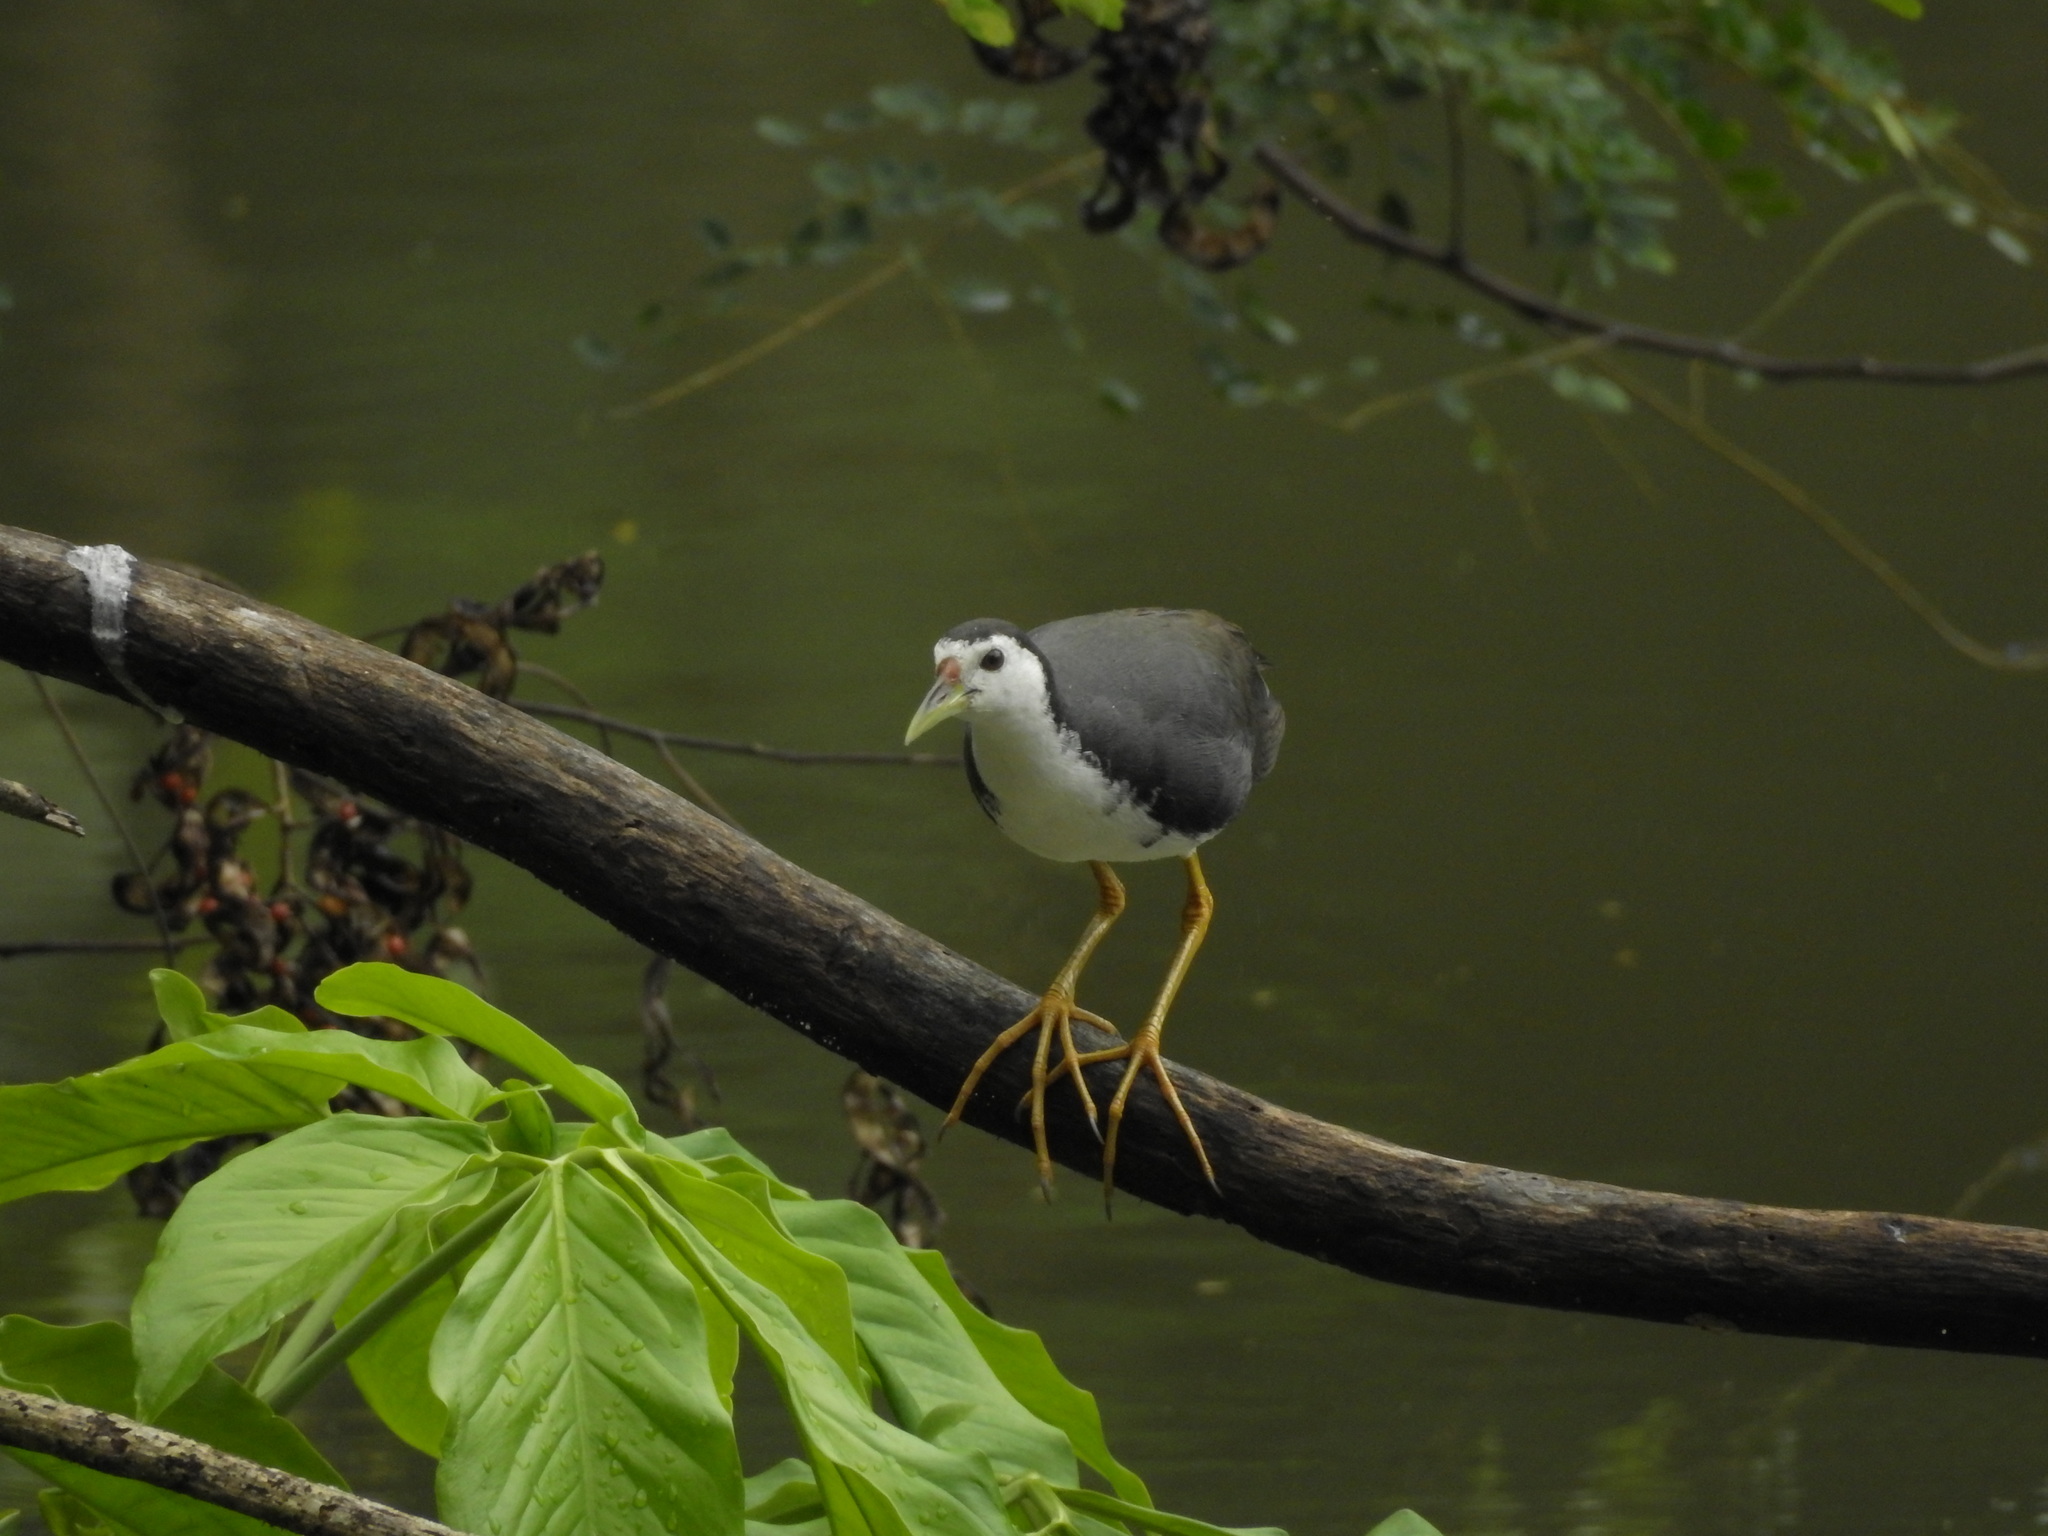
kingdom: Animalia
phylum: Chordata
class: Aves
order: Gruiformes
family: Rallidae
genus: Amaurornis
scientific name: Amaurornis phoenicurus
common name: White-breasted waterhen
